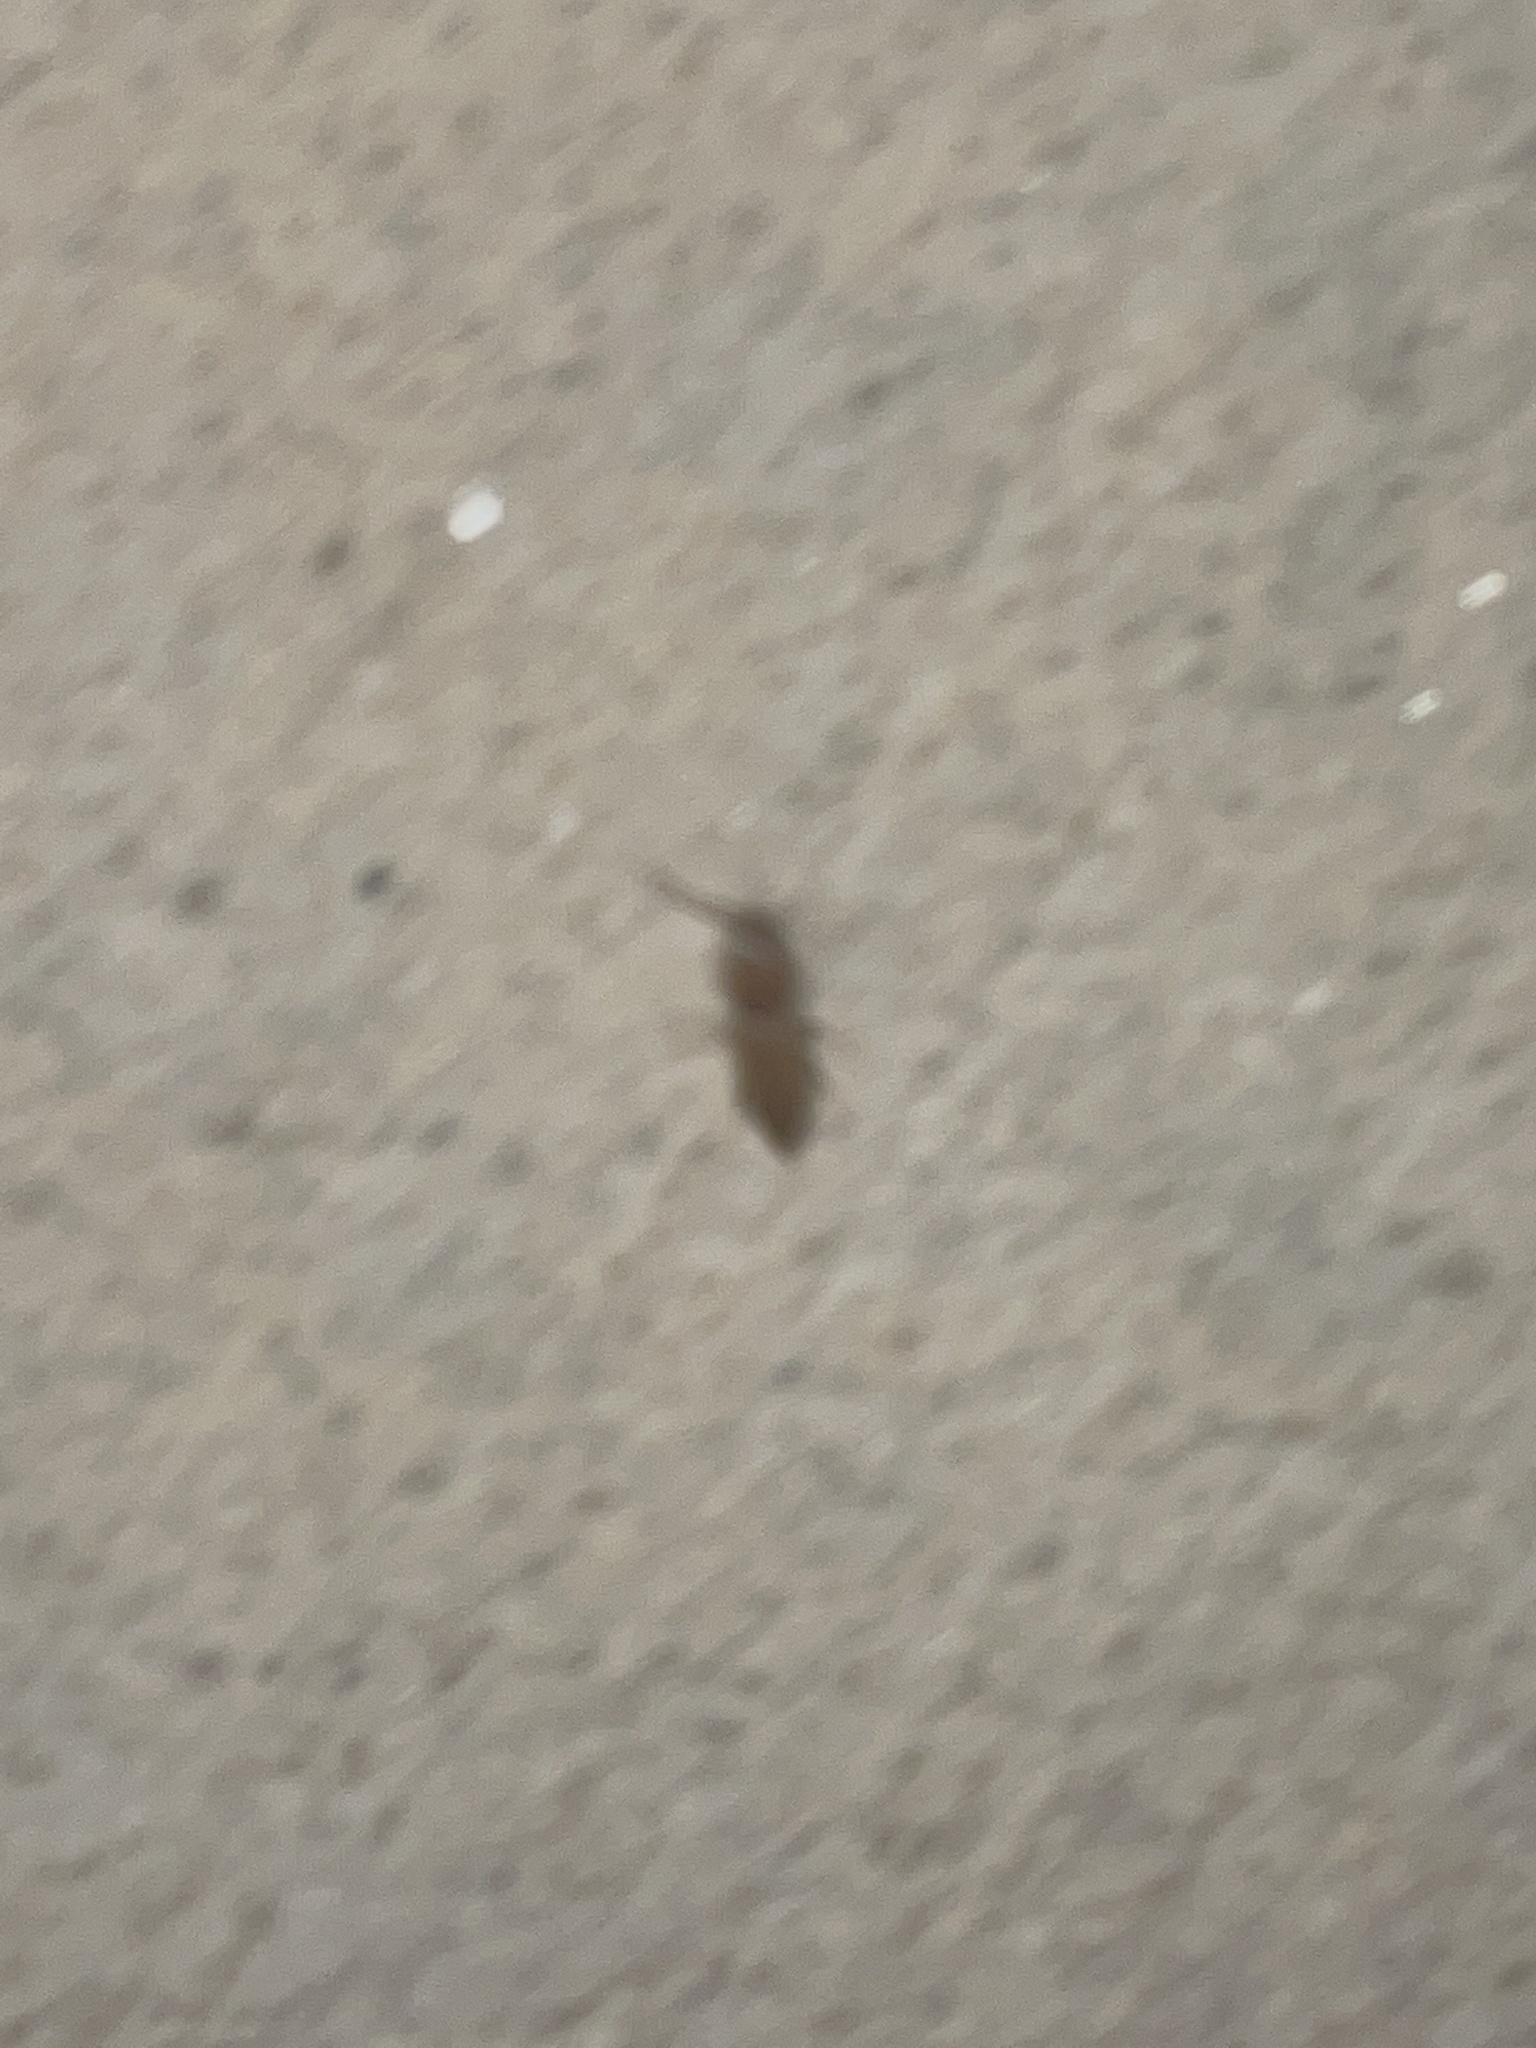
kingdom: Animalia
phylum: Arthropoda
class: Insecta
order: Coleoptera
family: Elateridae
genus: Monocrepidius
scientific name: Monocrepidius scissus
